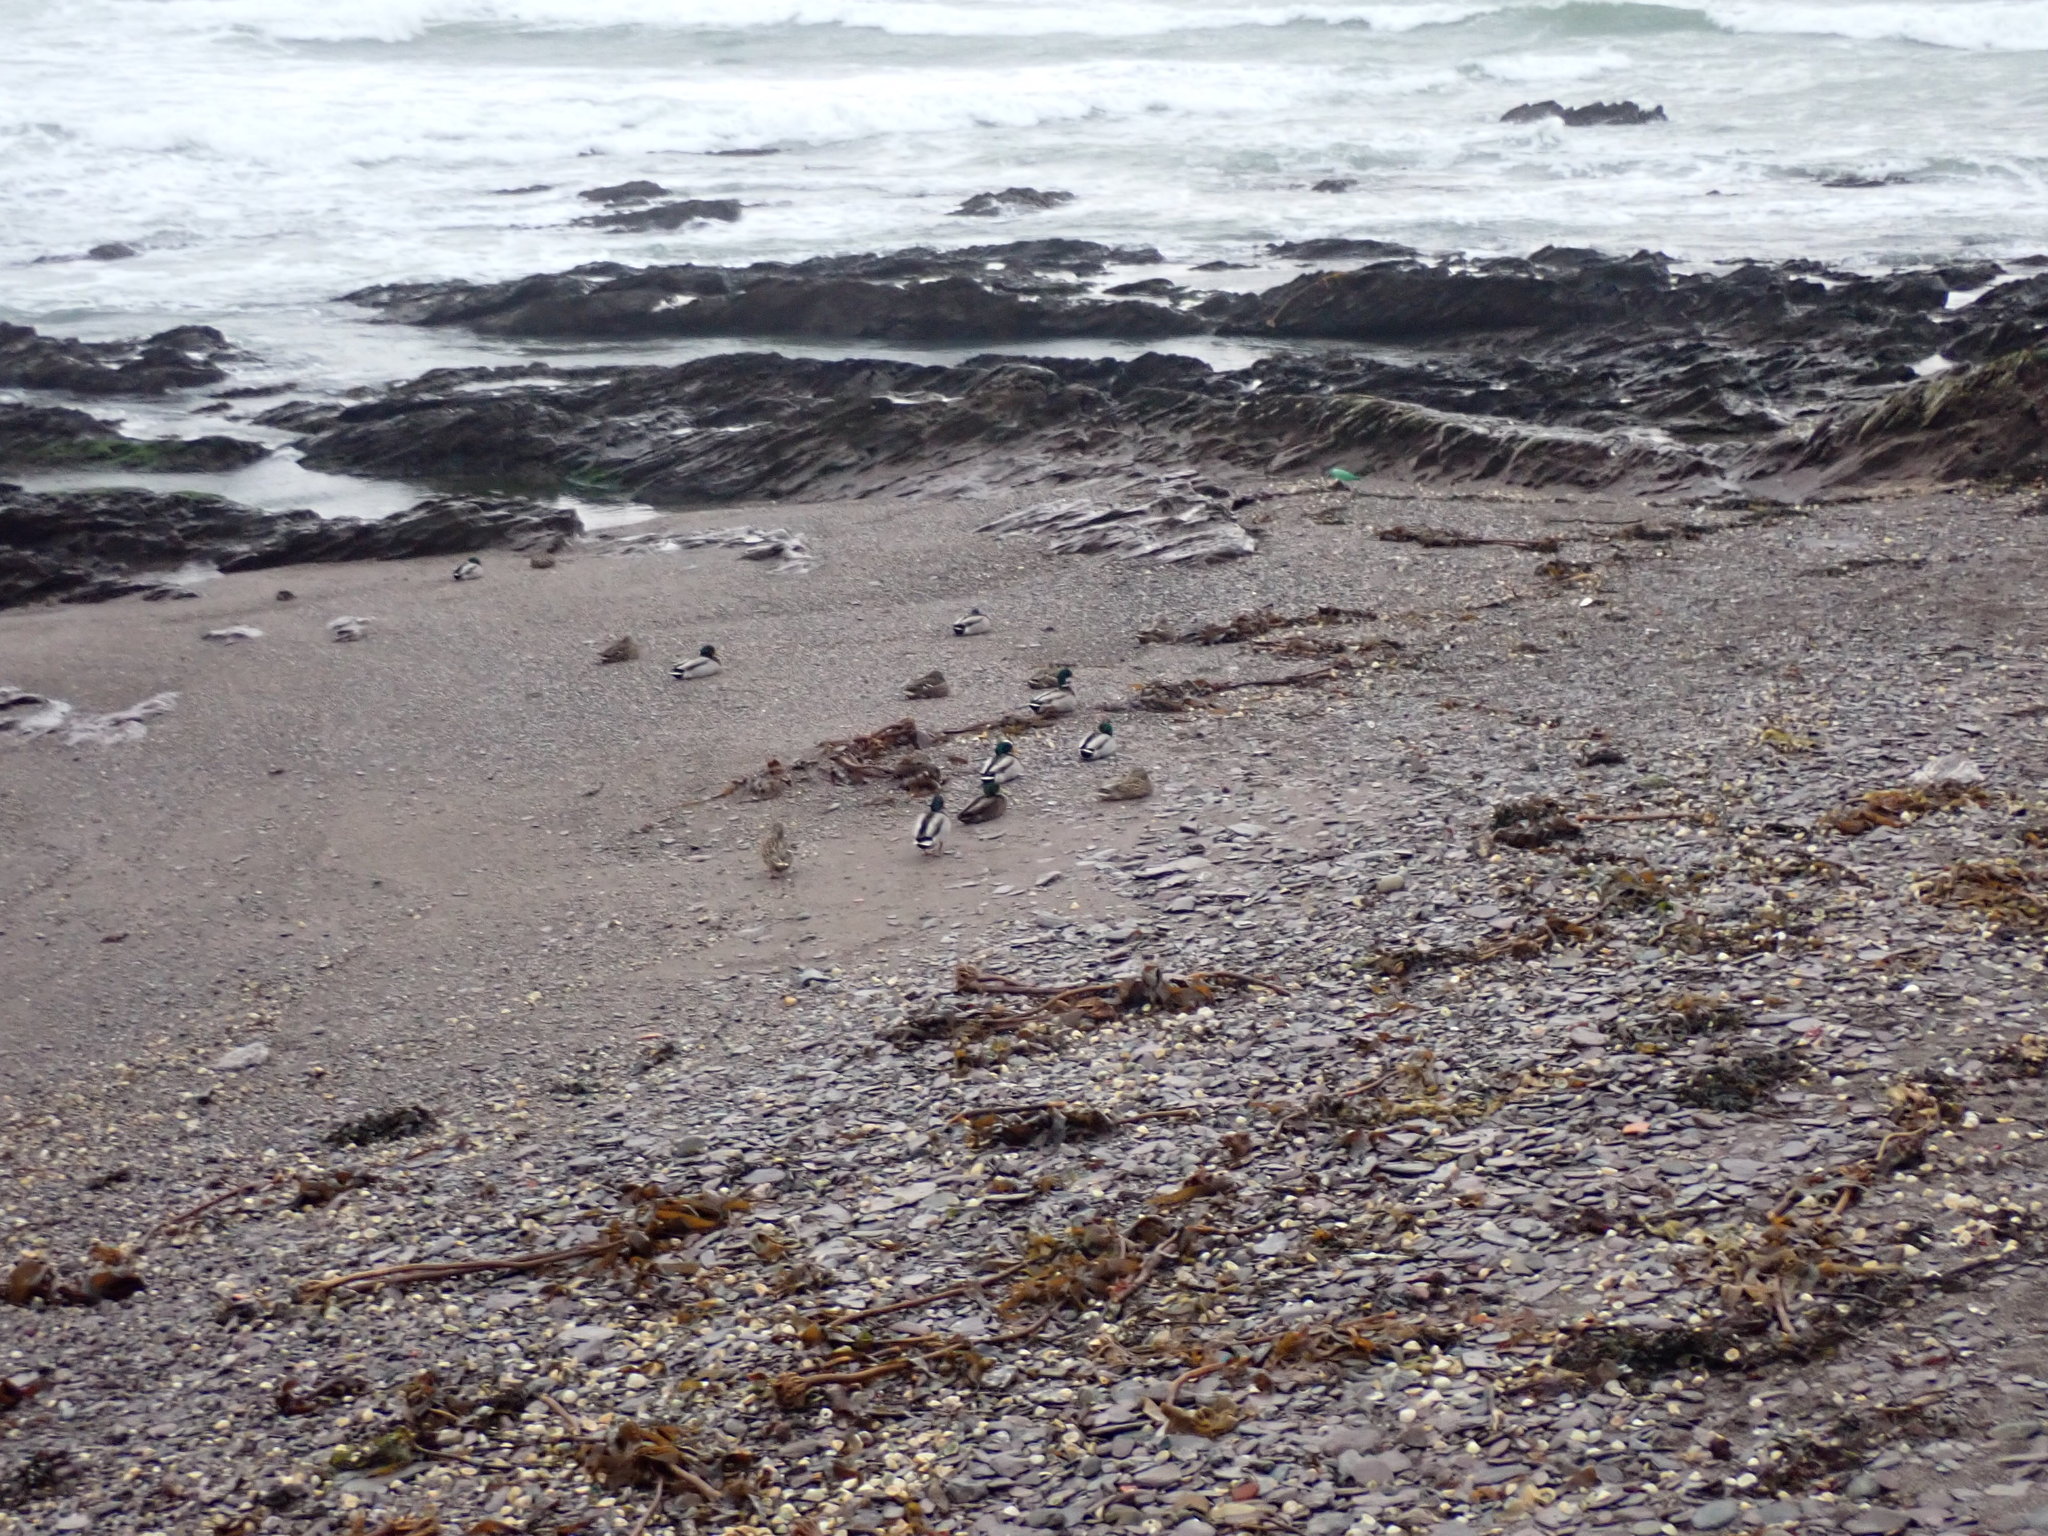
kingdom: Animalia
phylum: Chordata
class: Aves
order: Anseriformes
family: Anatidae
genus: Anas
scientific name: Anas platyrhynchos
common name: Mallard
